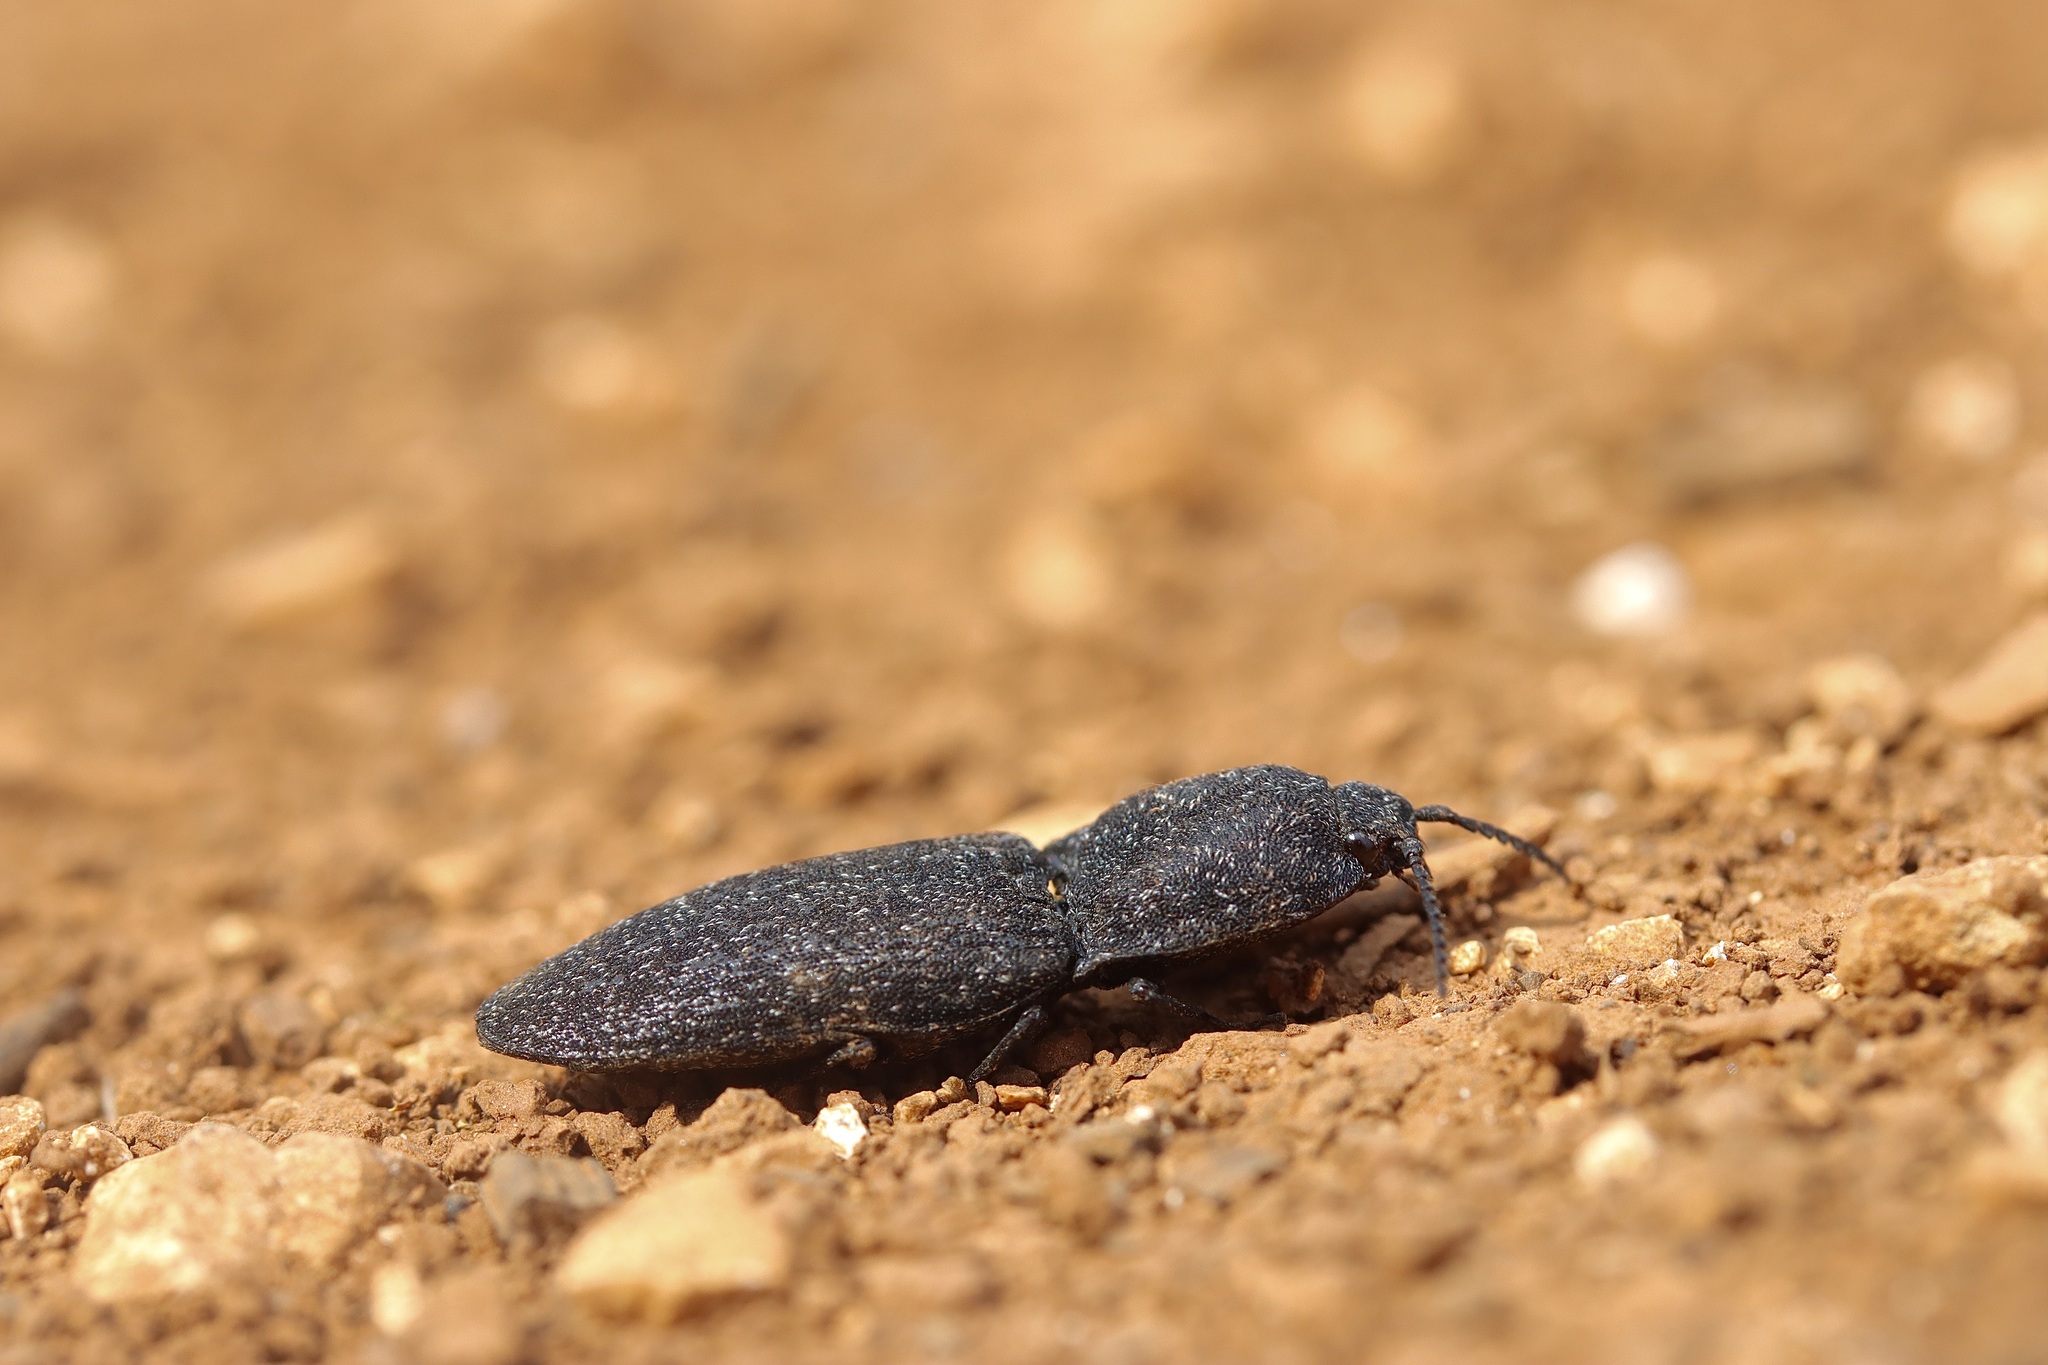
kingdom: Animalia
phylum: Arthropoda
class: Insecta
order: Coleoptera
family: Elateridae
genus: Lacon
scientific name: Lacon punctatus
